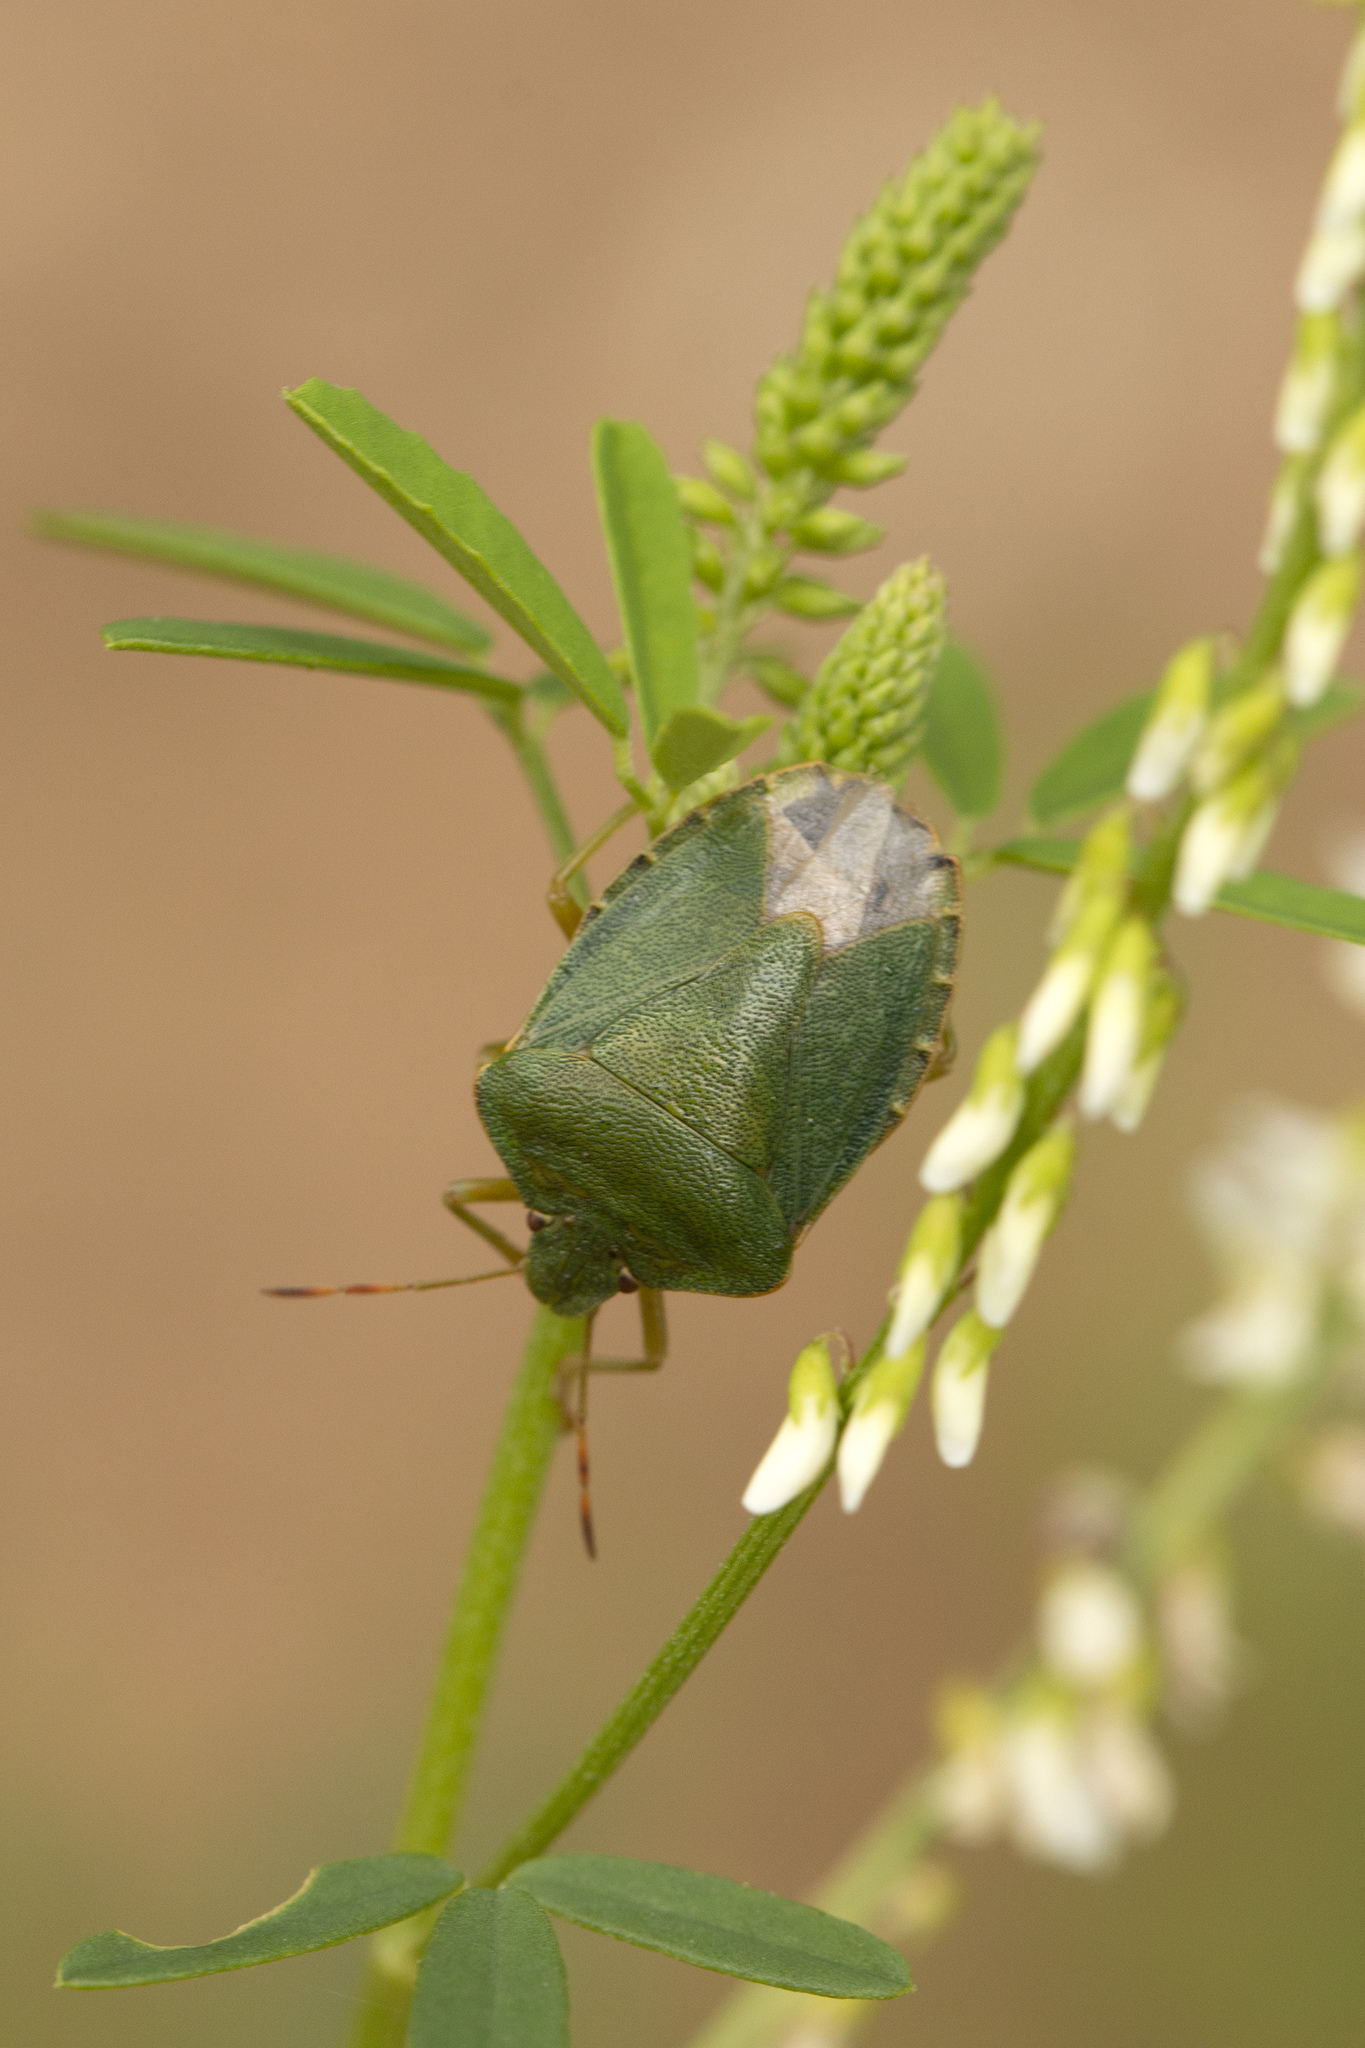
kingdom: Animalia
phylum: Arthropoda
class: Insecta
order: Hemiptera
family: Pentatomidae
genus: Palomena
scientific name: Palomena prasina
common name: Green shieldbug
